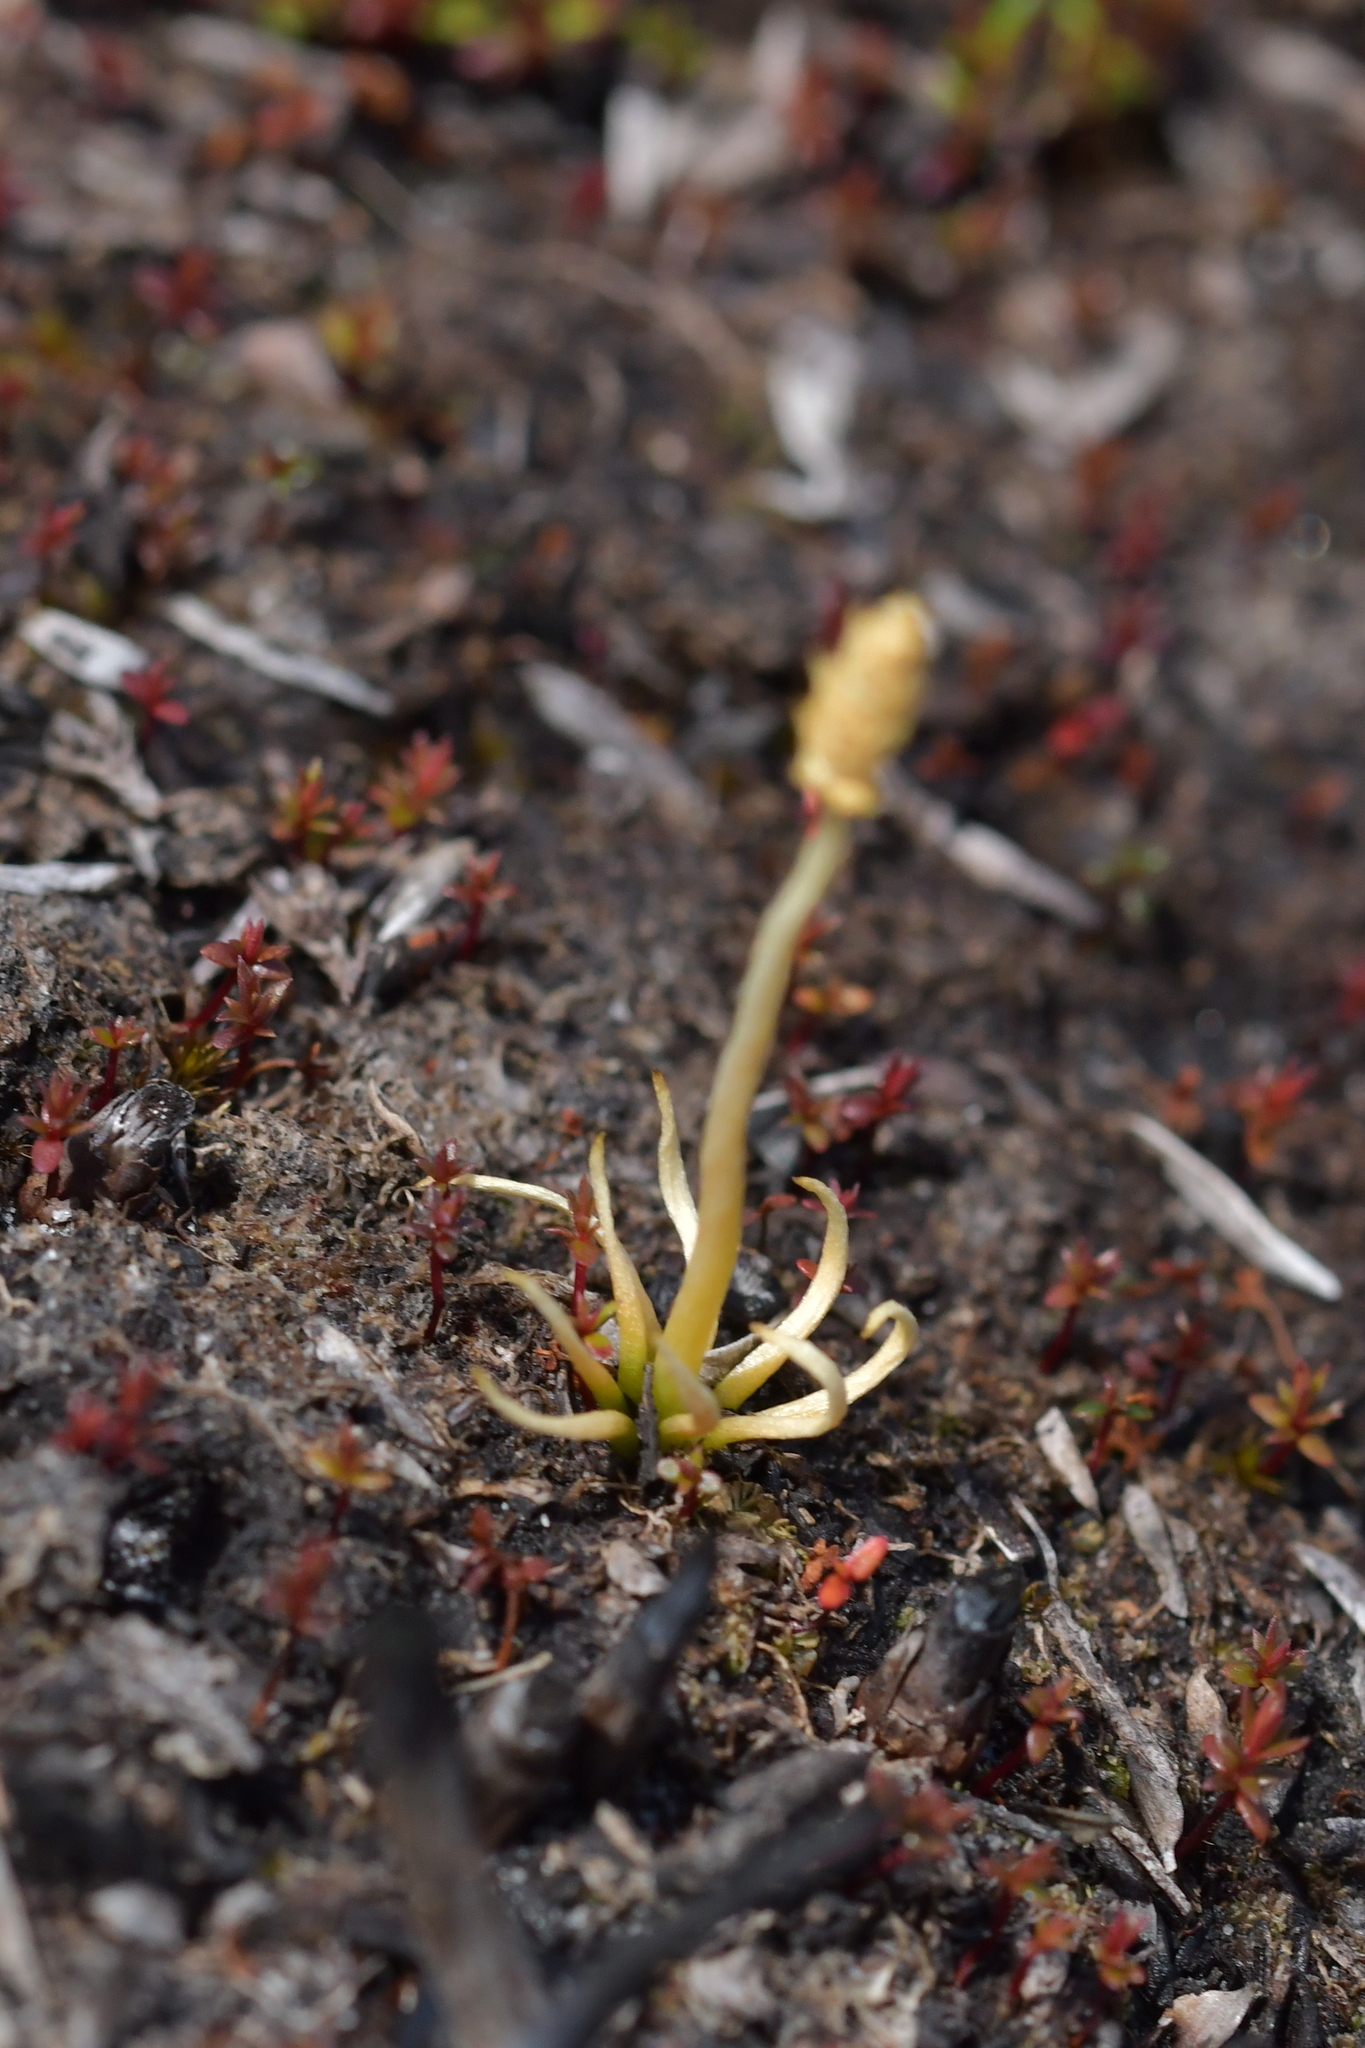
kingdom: Plantae
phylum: Tracheophyta
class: Lycopodiopsida
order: Lycopodiales
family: Lycopodiaceae
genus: Phylloglossum
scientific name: Phylloglossum drummondii
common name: Pigmy-club-moss
